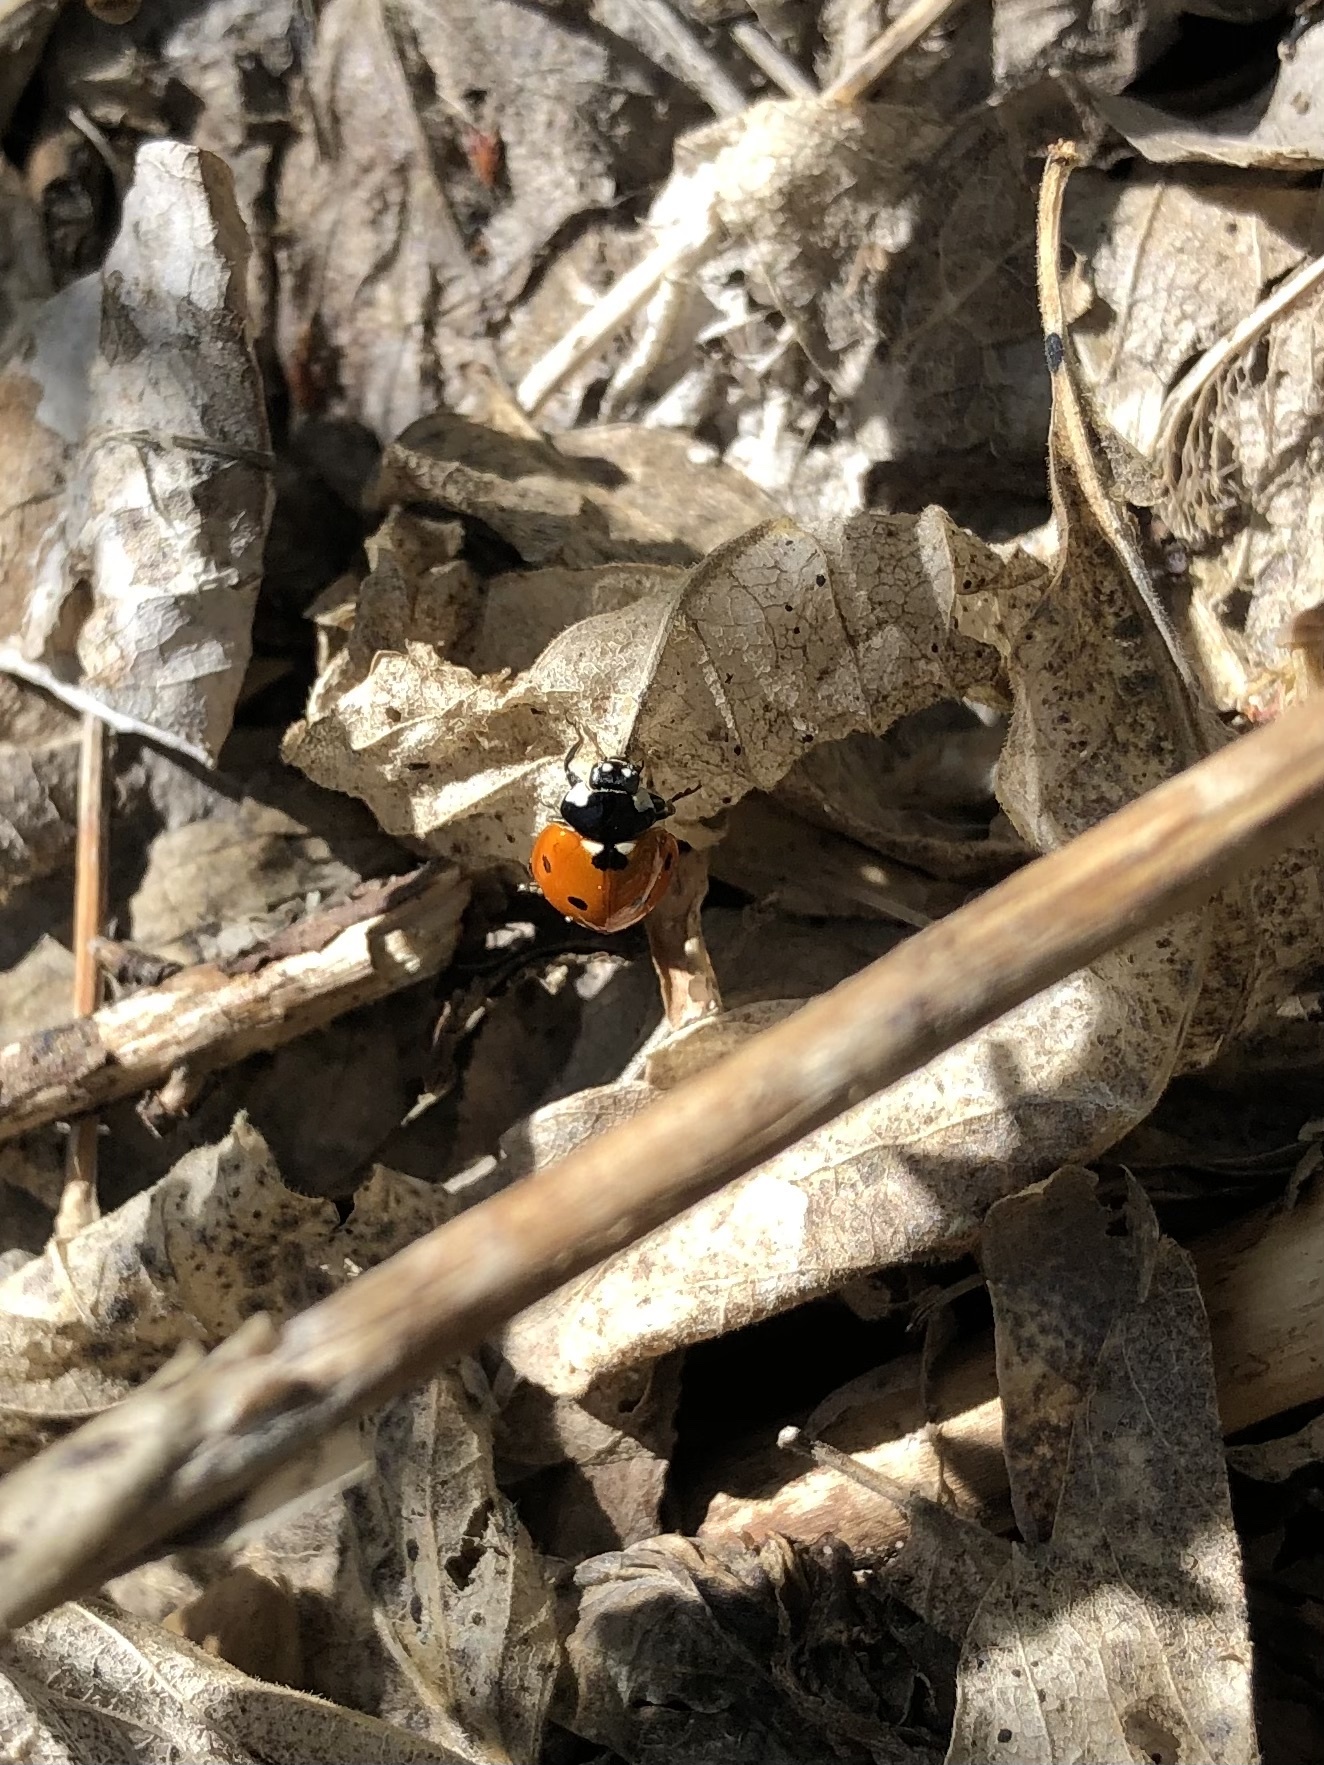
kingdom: Animalia
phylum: Arthropoda
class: Insecta
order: Coleoptera
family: Coccinellidae
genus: Coccinella
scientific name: Coccinella septempunctata
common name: Sevenspotted lady beetle
